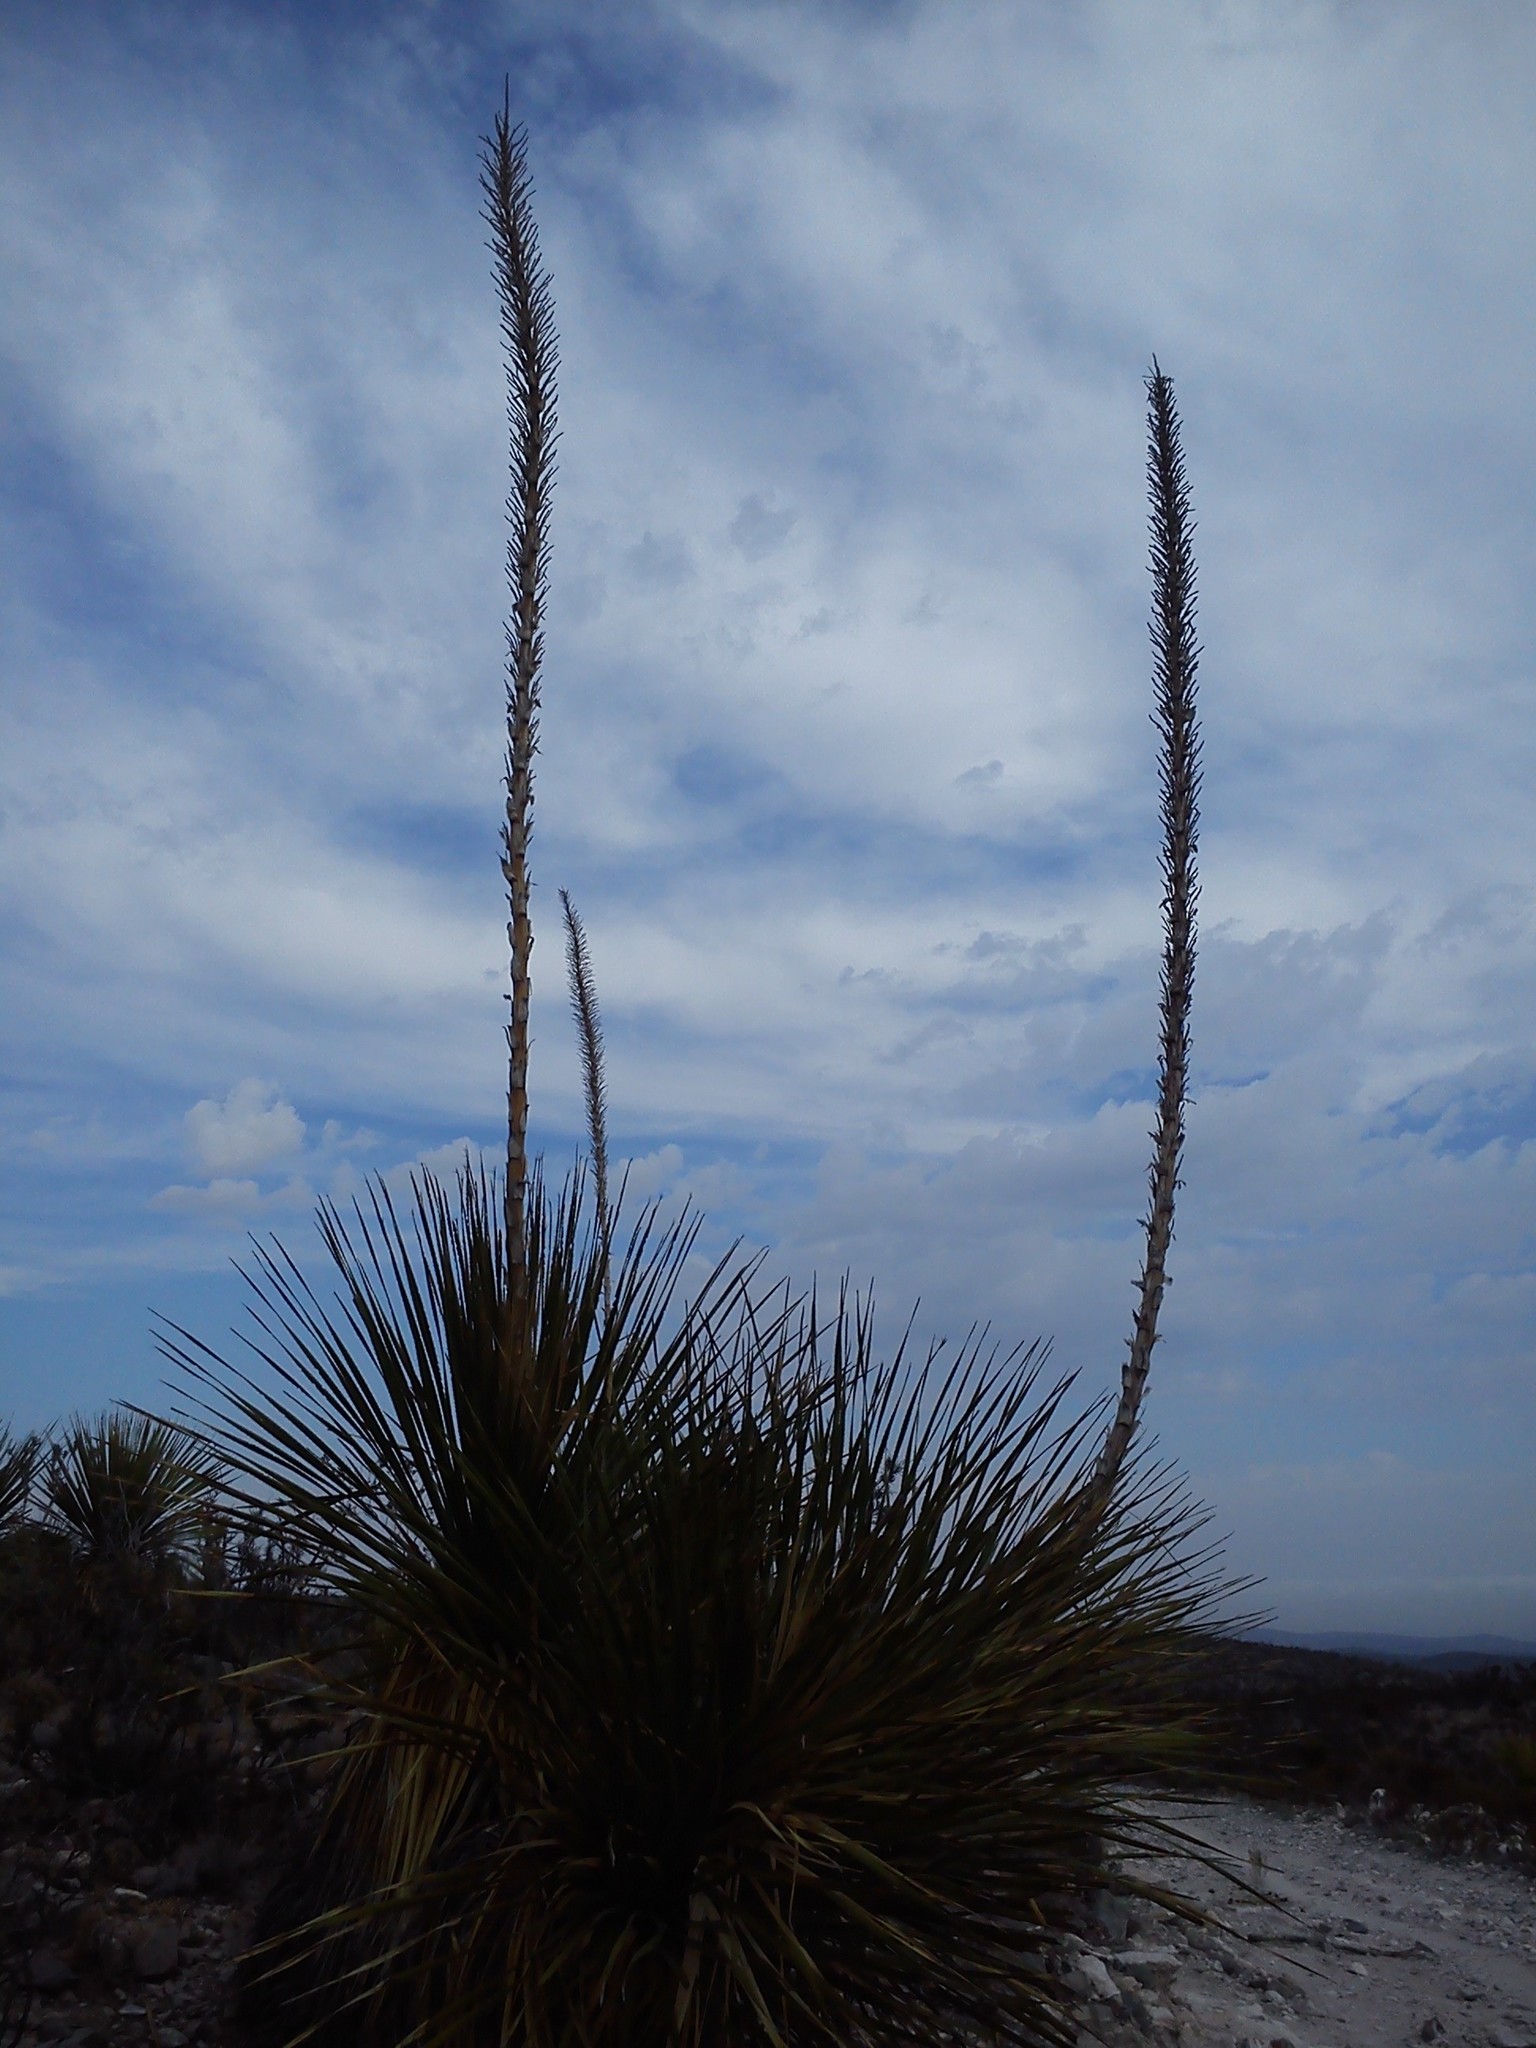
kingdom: Plantae
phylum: Tracheophyta
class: Liliopsida
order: Asparagales
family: Asparagaceae
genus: Dasylirion
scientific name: Dasylirion acrotrichum
